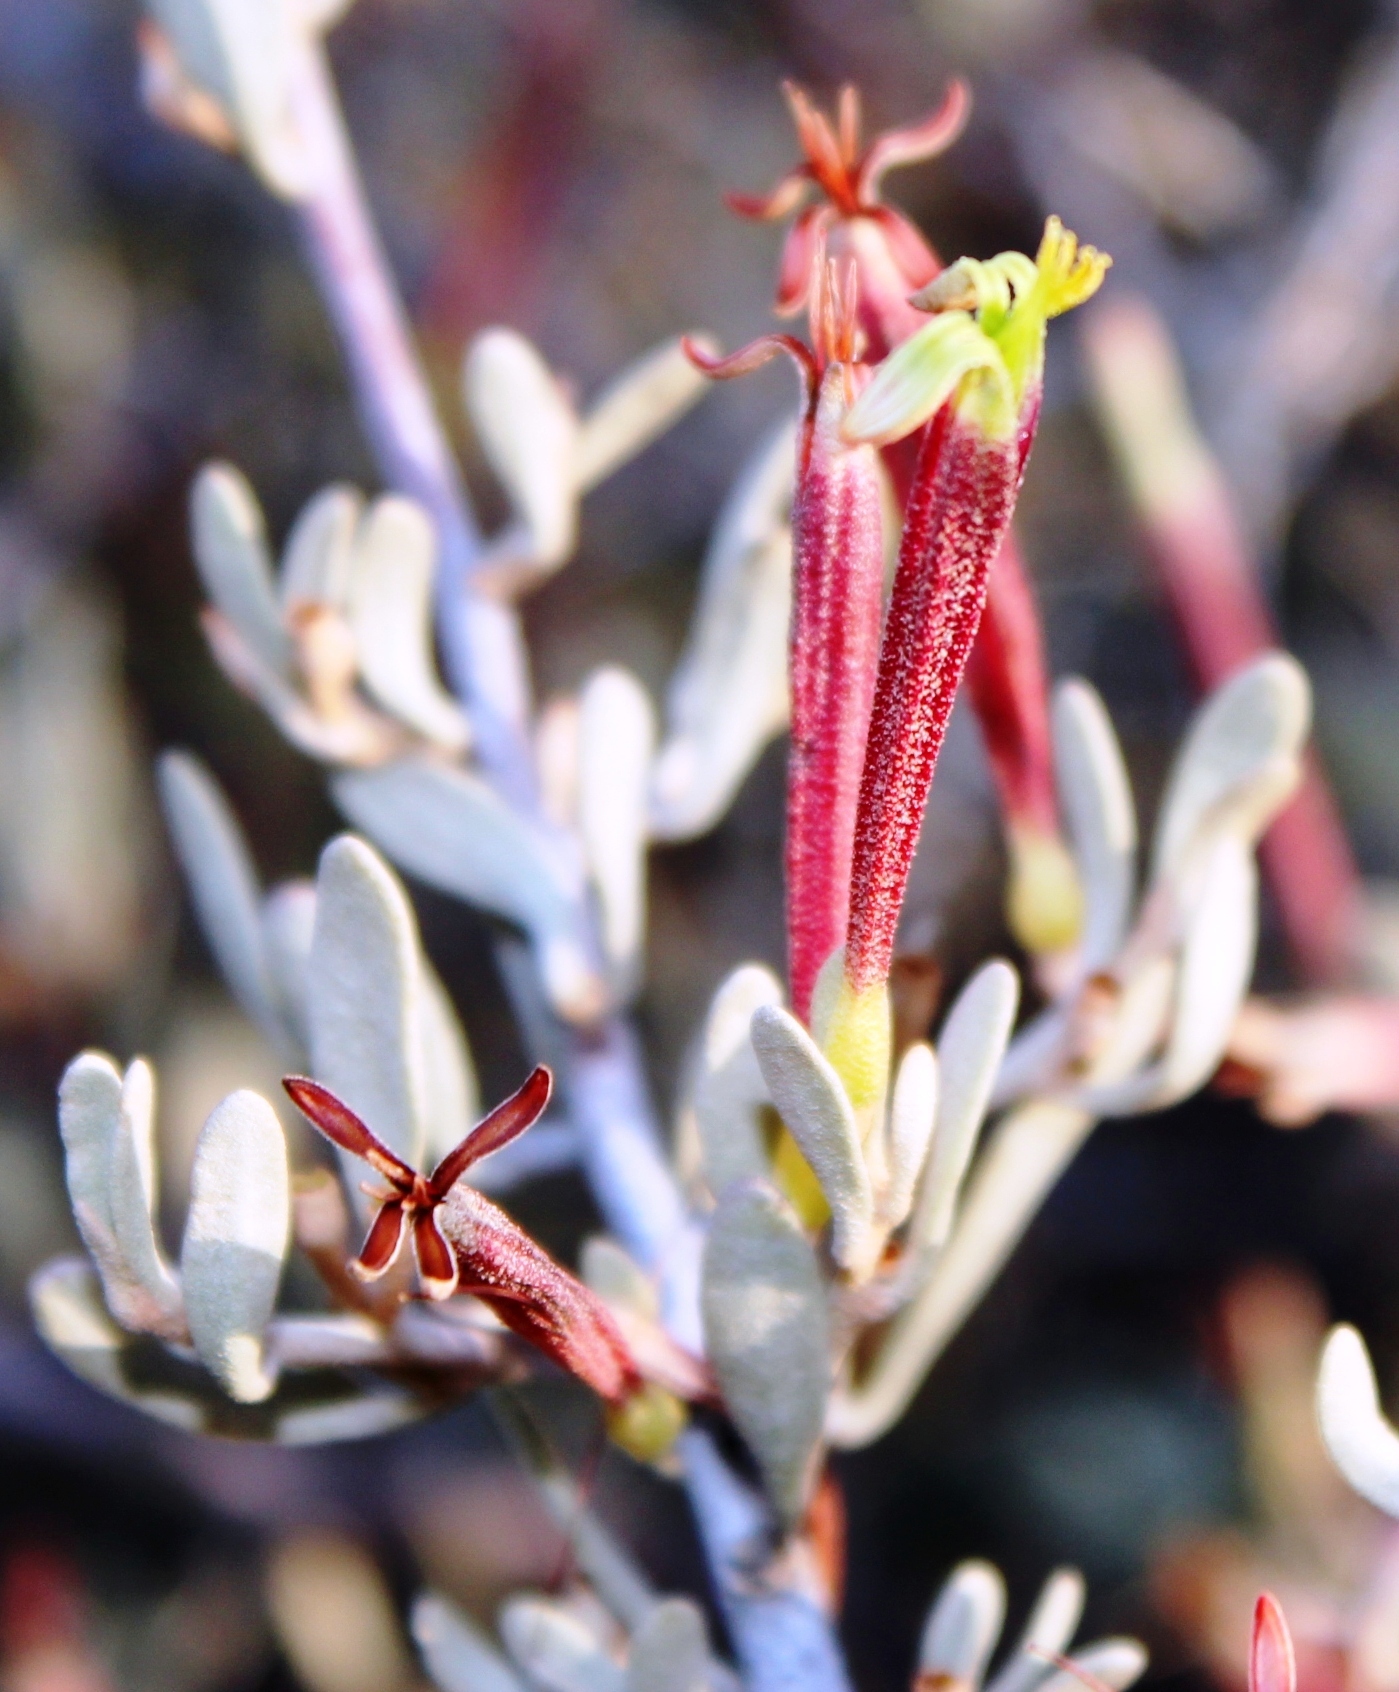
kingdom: Plantae
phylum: Tracheophyta
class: Magnoliopsida
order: Santalales
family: Loranthaceae
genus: Septulina
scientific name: Septulina glauca
